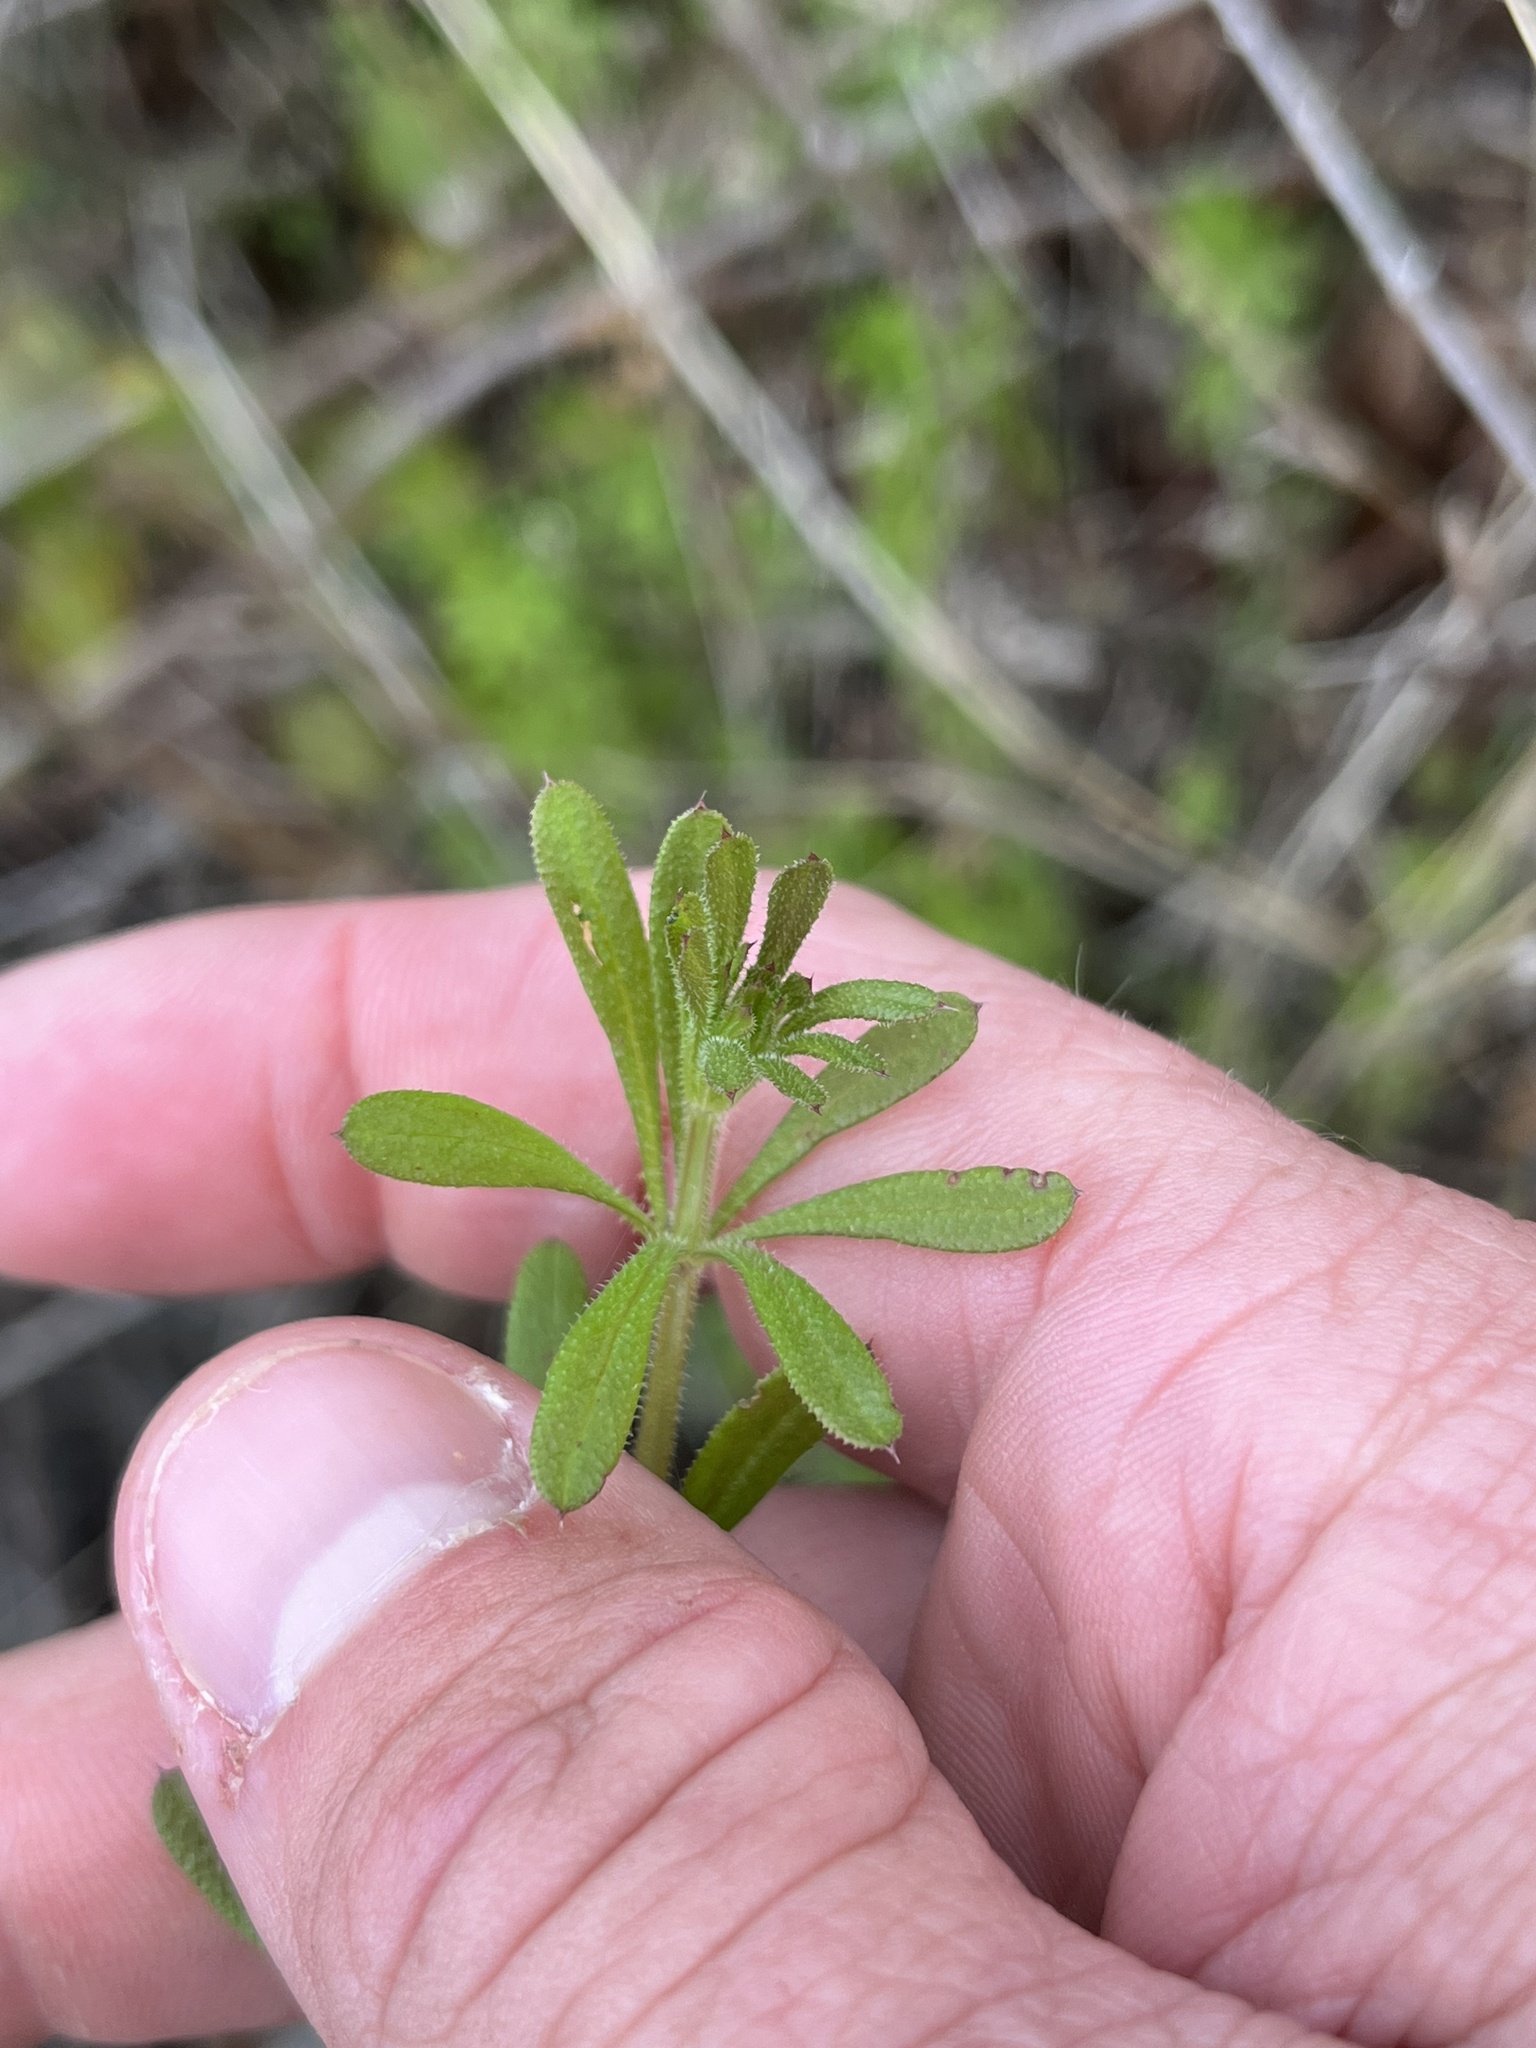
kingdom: Plantae
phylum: Tracheophyta
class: Magnoliopsida
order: Gentianales
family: Rubiaceae
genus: Galium
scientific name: Galium aparine
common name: Cleavers
